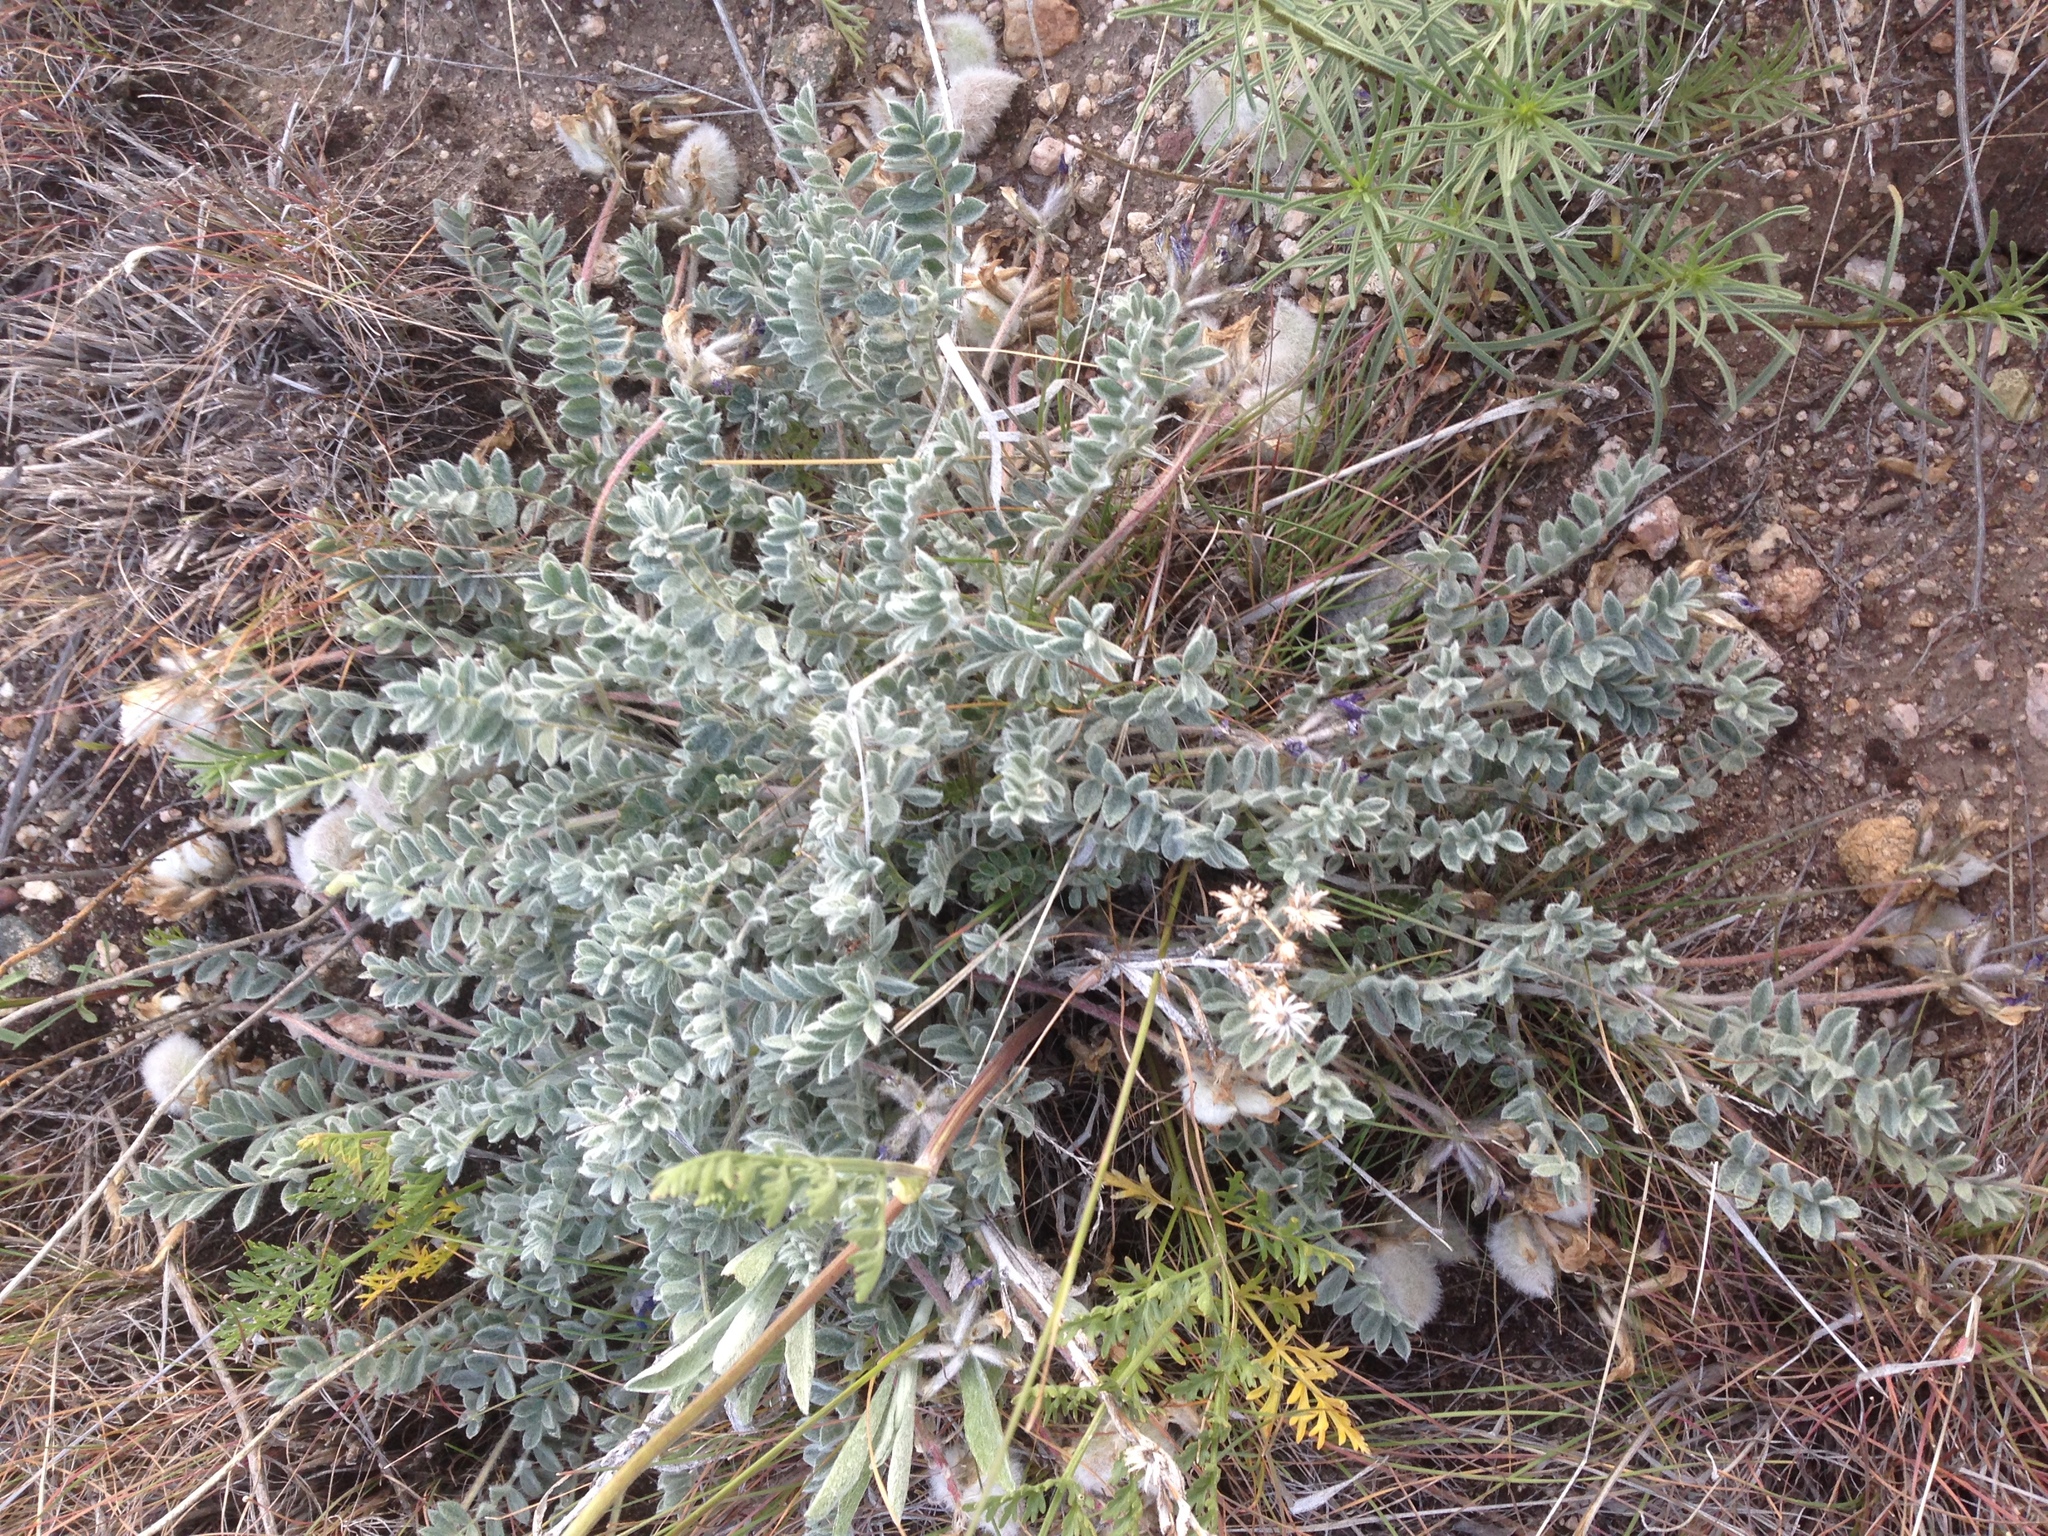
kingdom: Plantae
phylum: Tracheophyta
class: Magnoliopsida
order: Fabales
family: Fabaceae
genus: Astragalus
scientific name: Astragalus purshii
